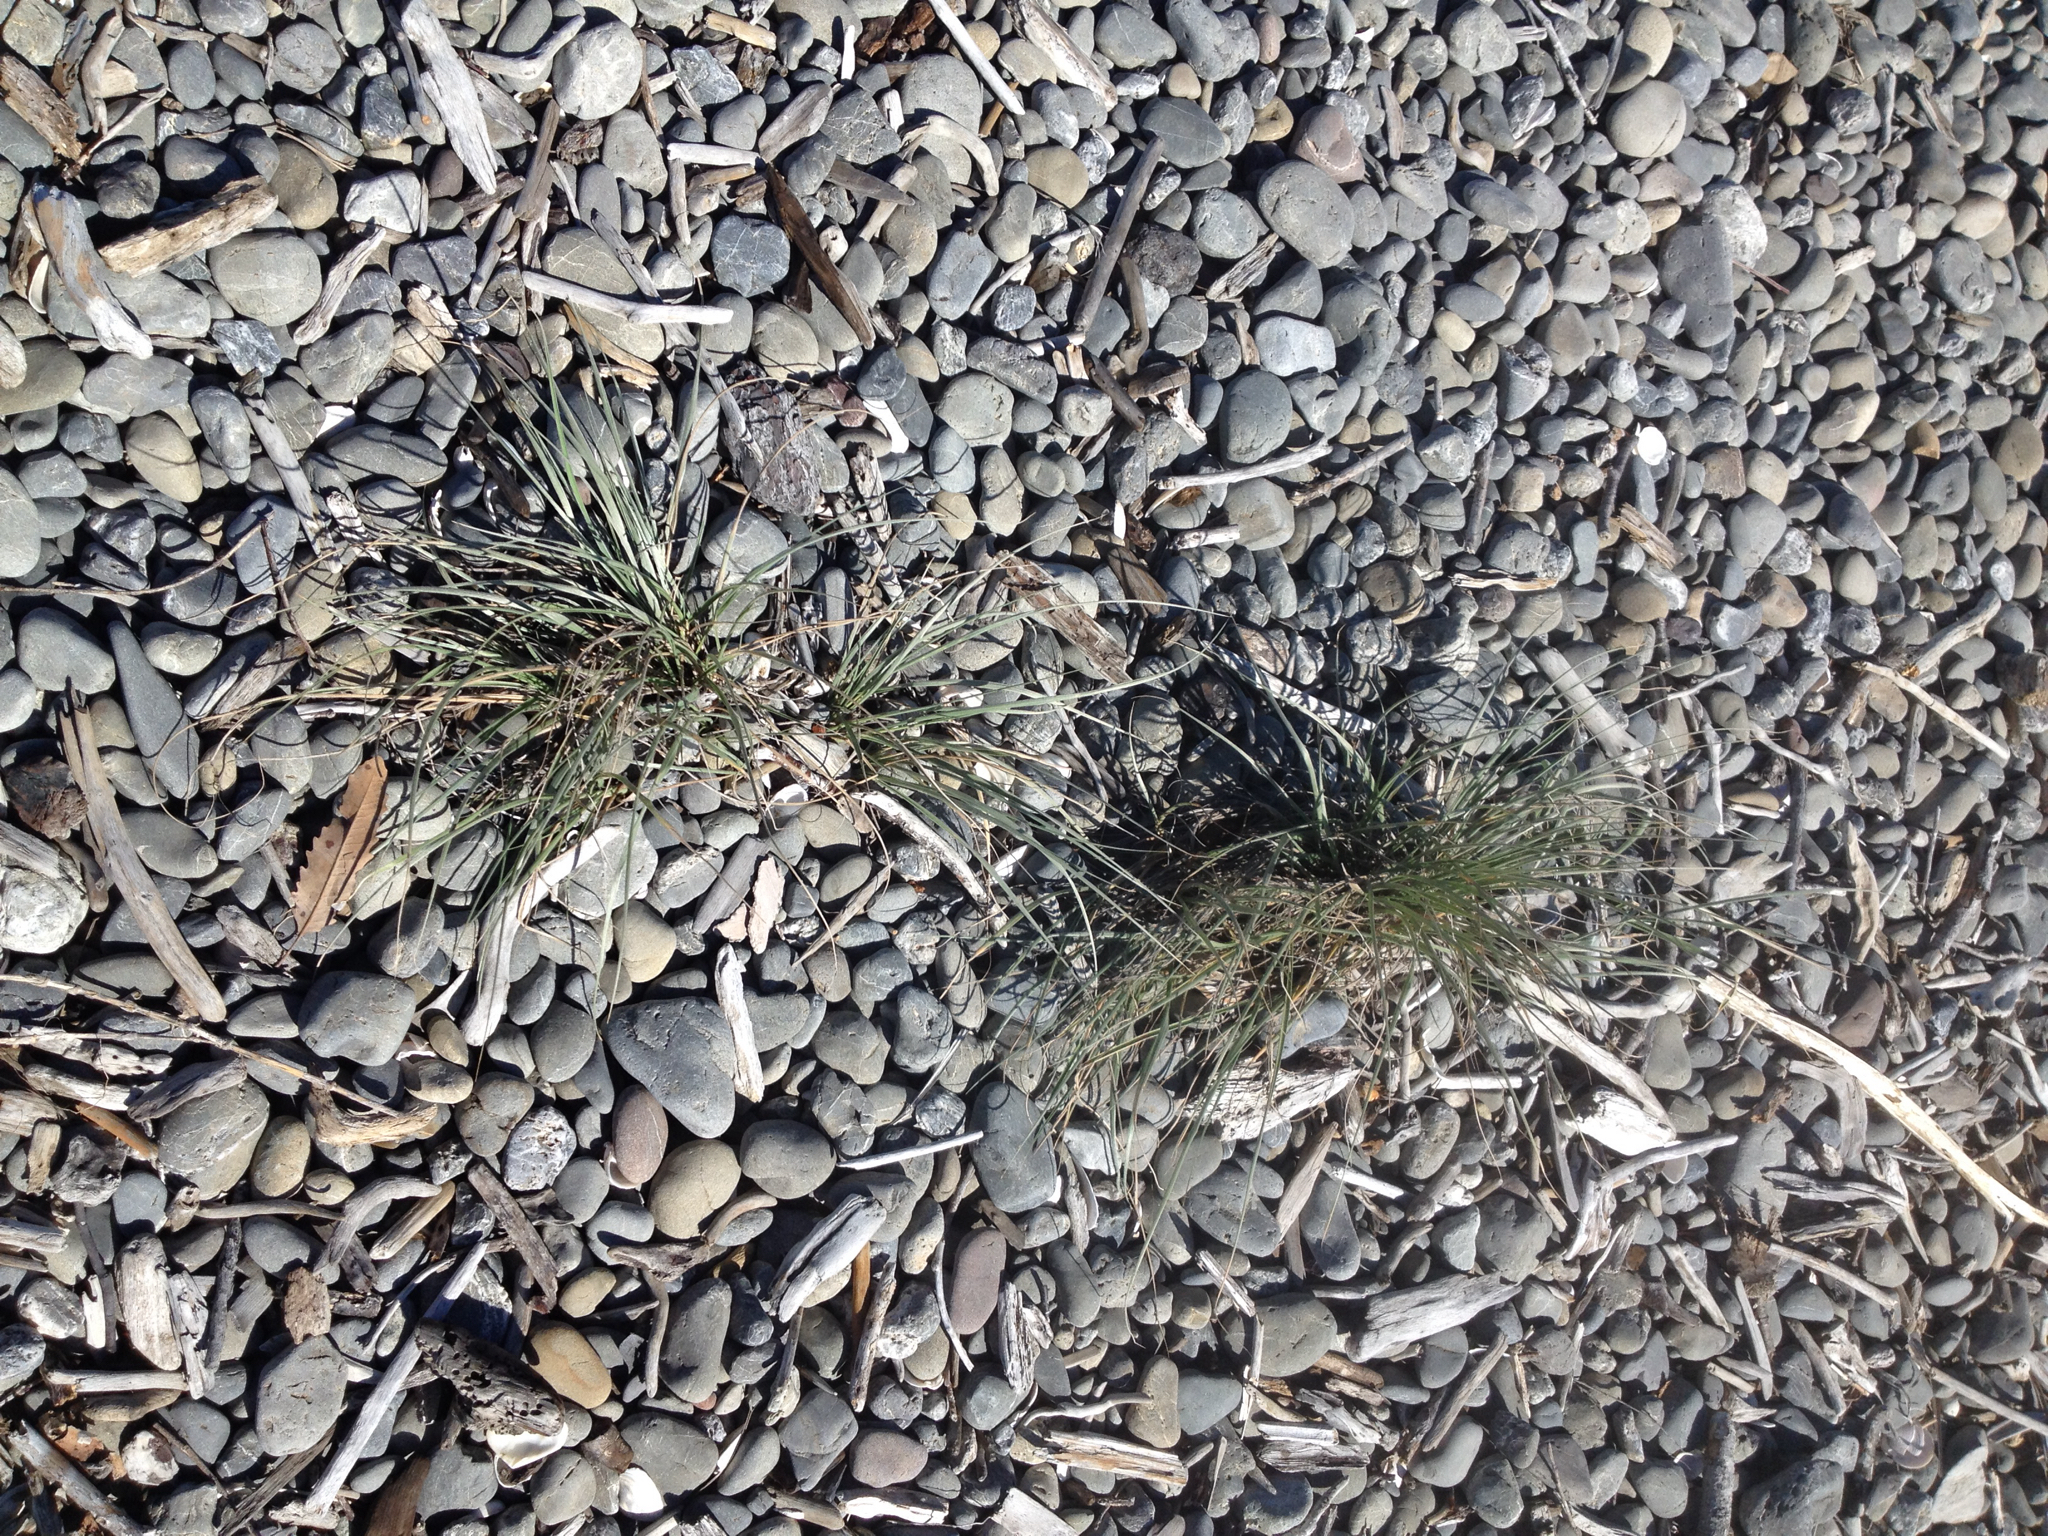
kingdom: Plantae
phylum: Tracheophyta
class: Liliopsida
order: Poales
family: Poaceae
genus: Spinifex
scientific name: Spinifex sericeus
